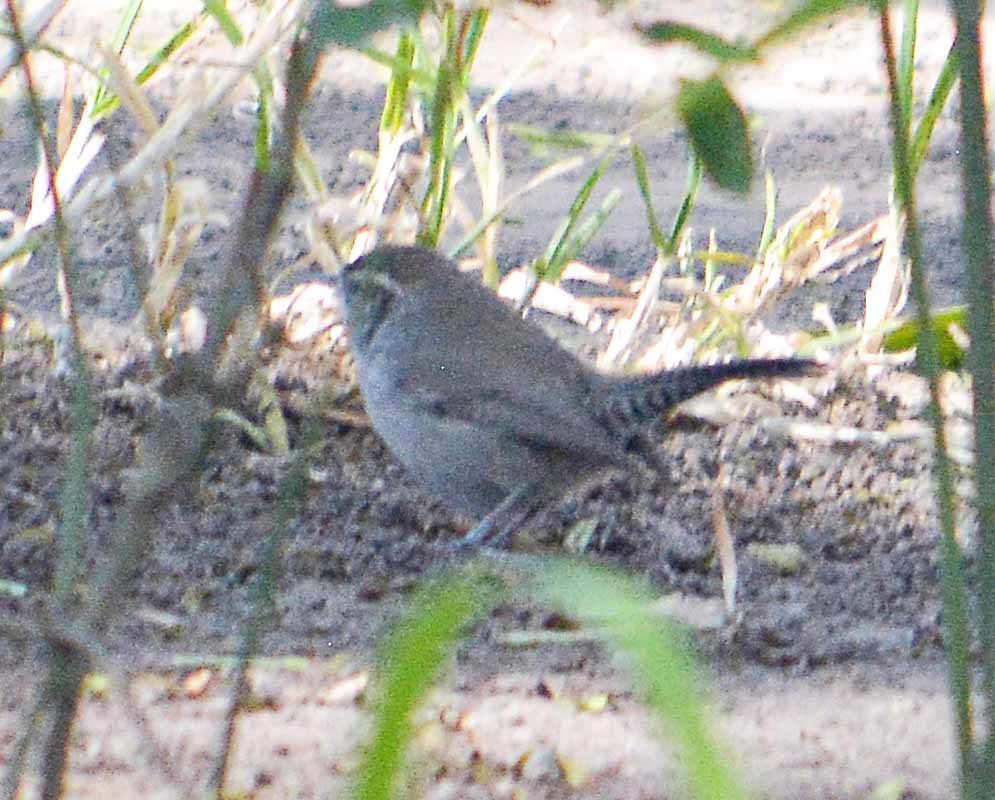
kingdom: Animalia
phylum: Chordata
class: Aves
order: Passeriformes
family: Troglodytidae
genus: Thryomanes
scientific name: Thryomanes bewickii
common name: Bewick's wren
